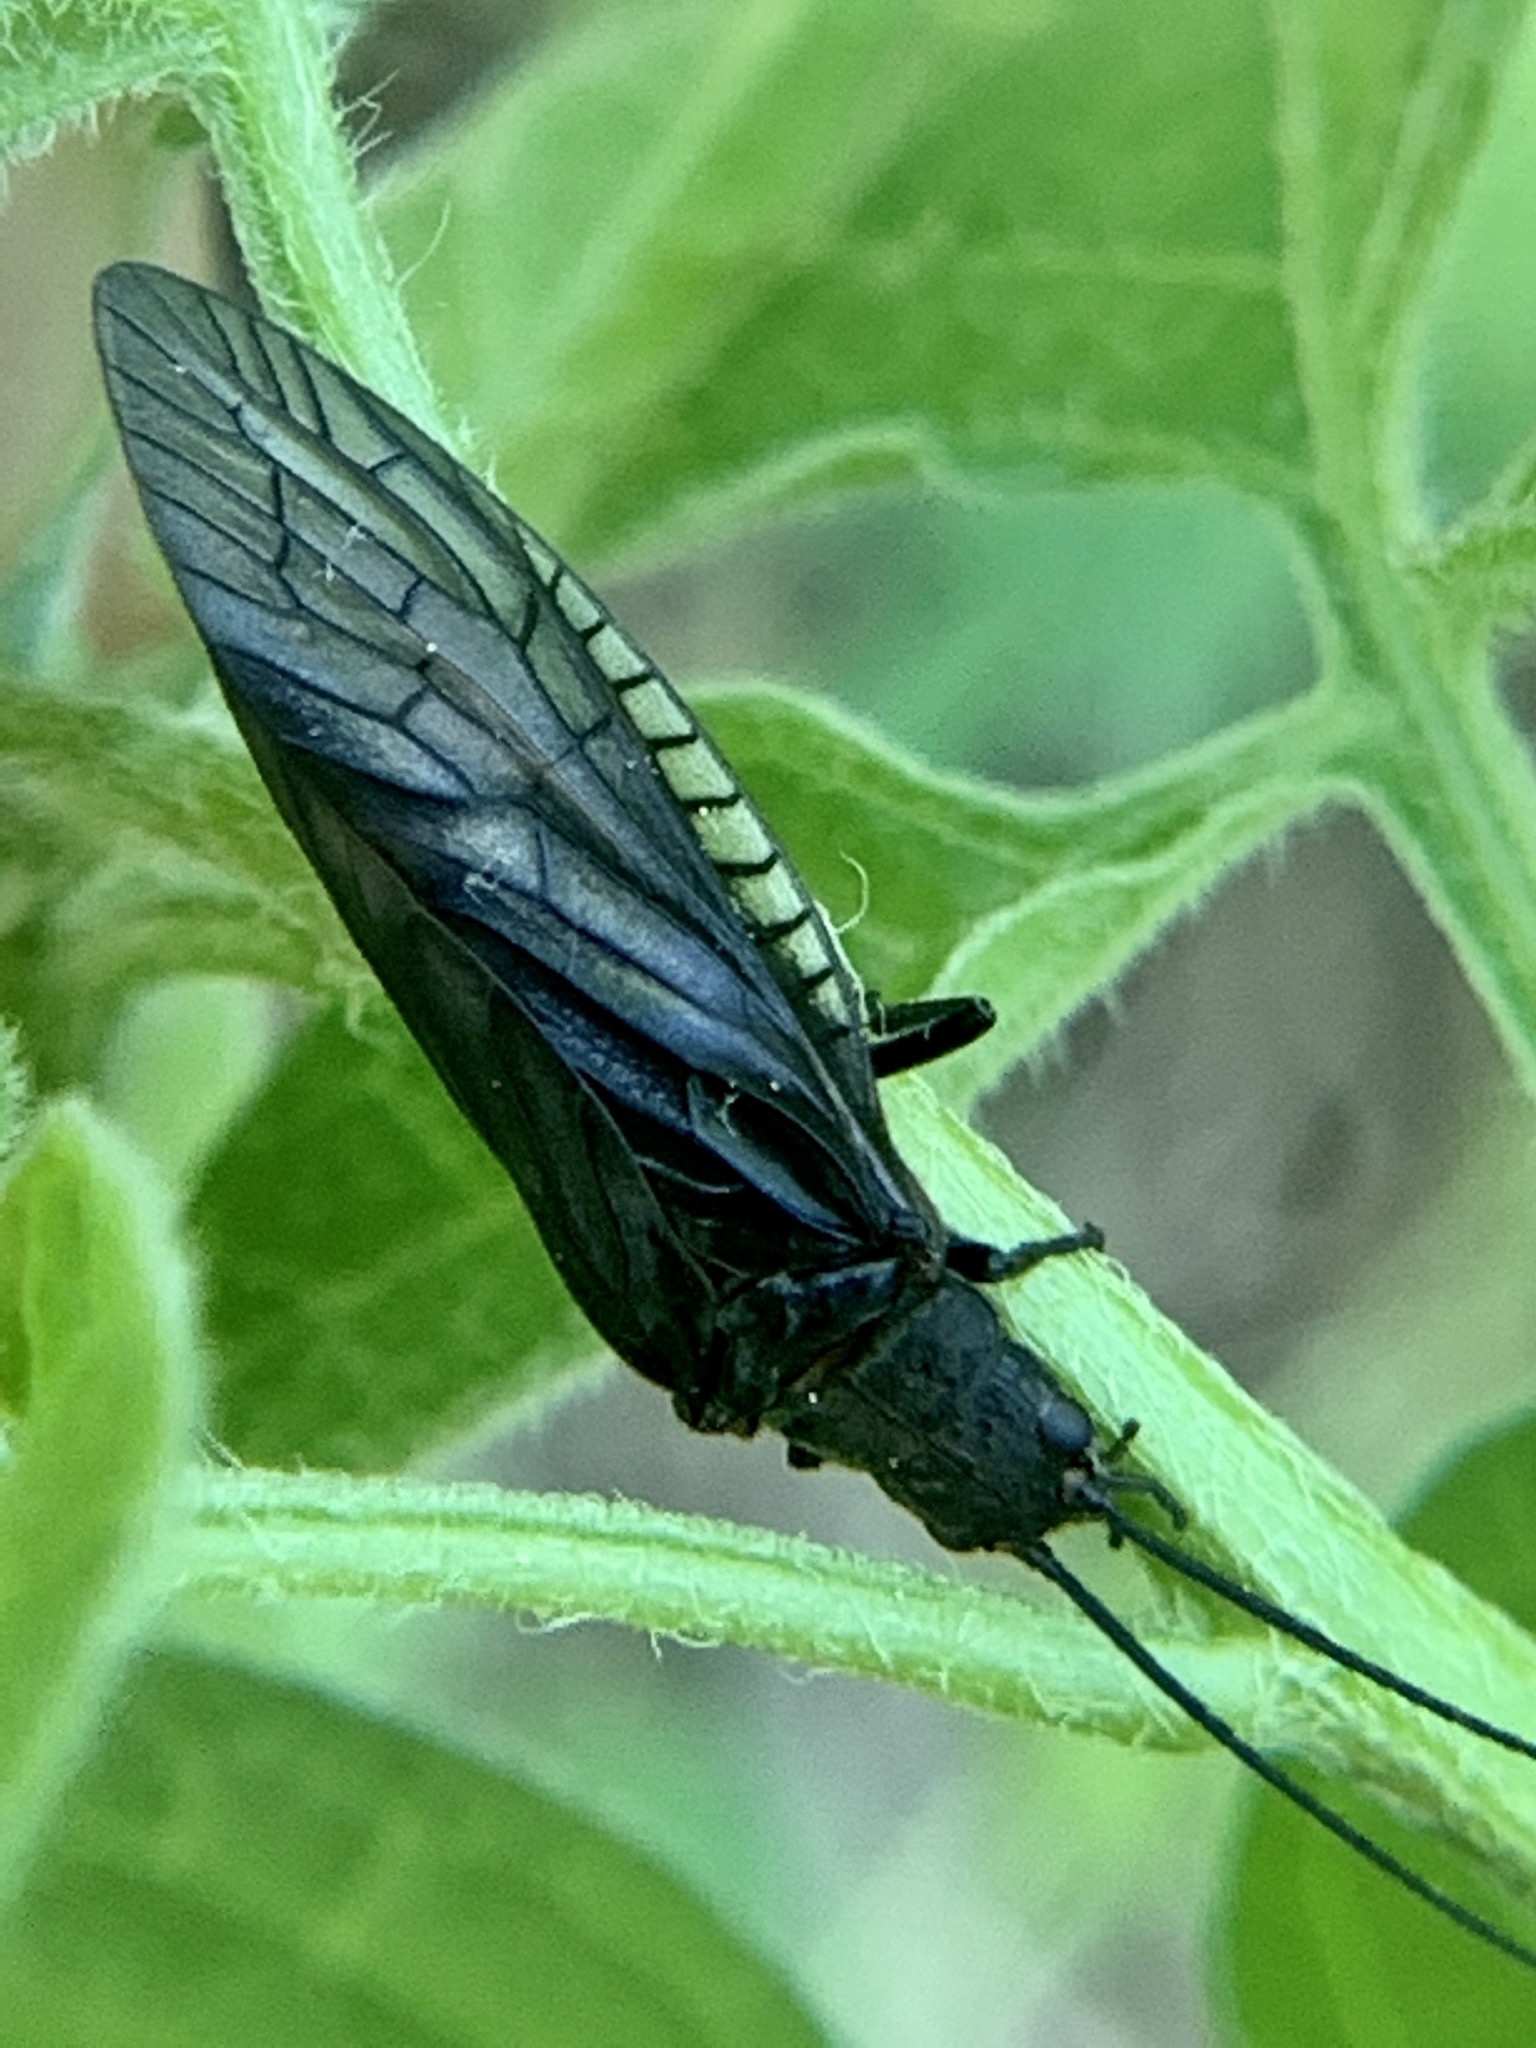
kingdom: Animalia
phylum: Arthropoda
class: Insecta
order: Megaloptera
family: Sialidae
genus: Sialis
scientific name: Sialis
